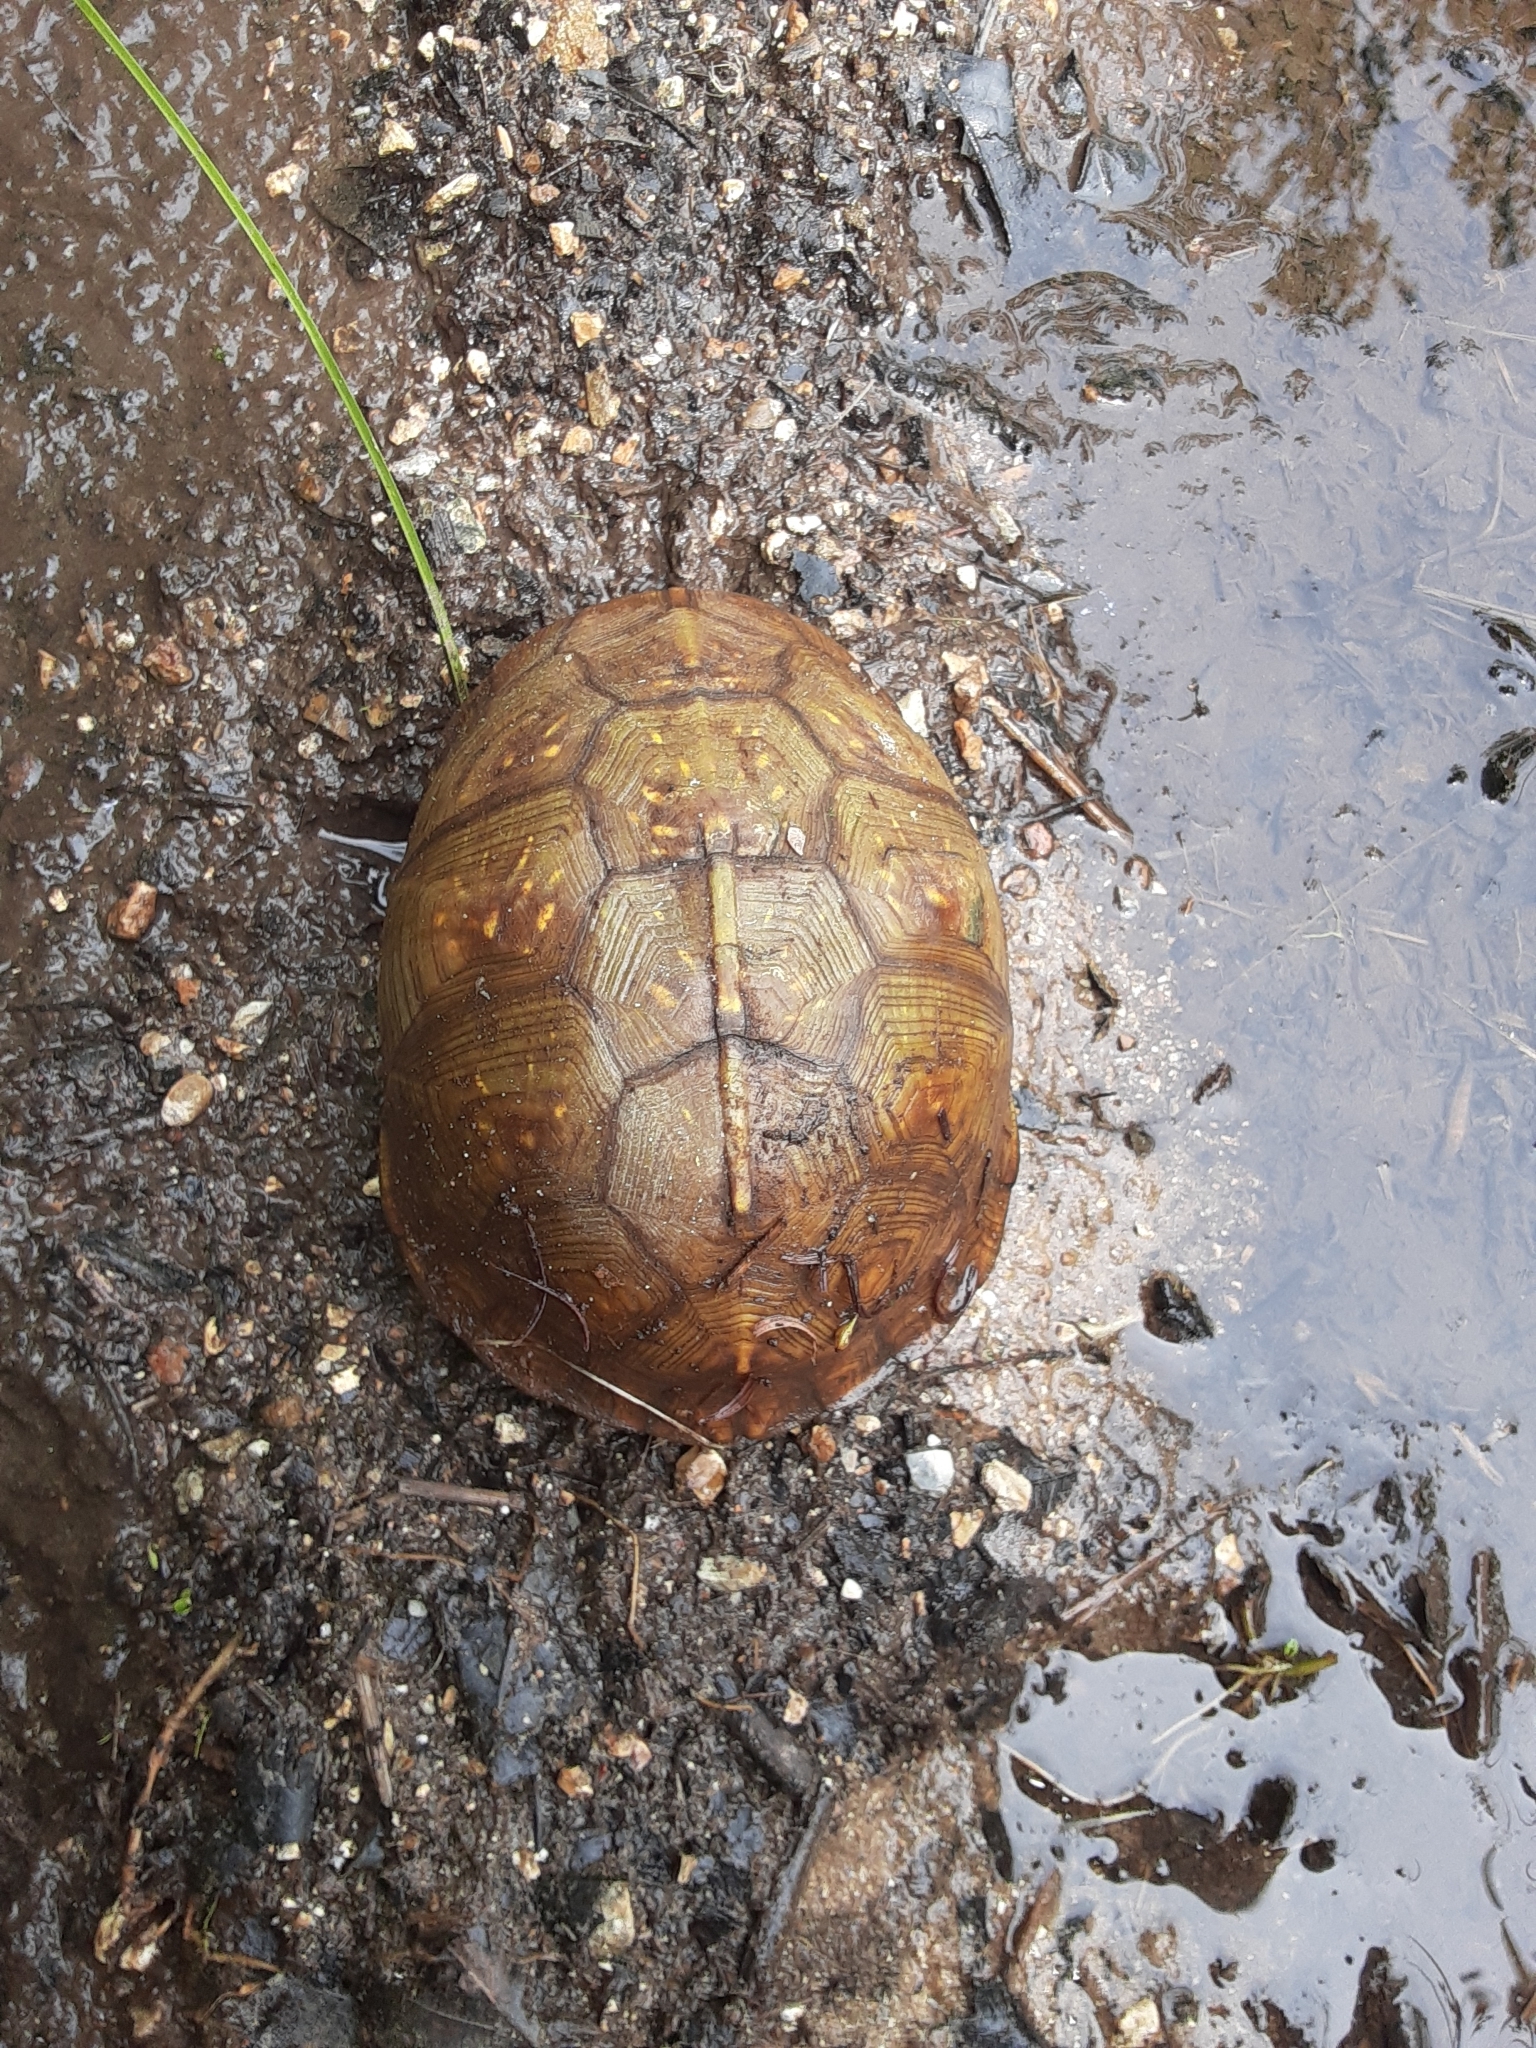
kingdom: Animalia
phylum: Chordata
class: Testudines
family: Emydidae
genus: Terrapene
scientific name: Terrapene carolina
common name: Common box turtle
